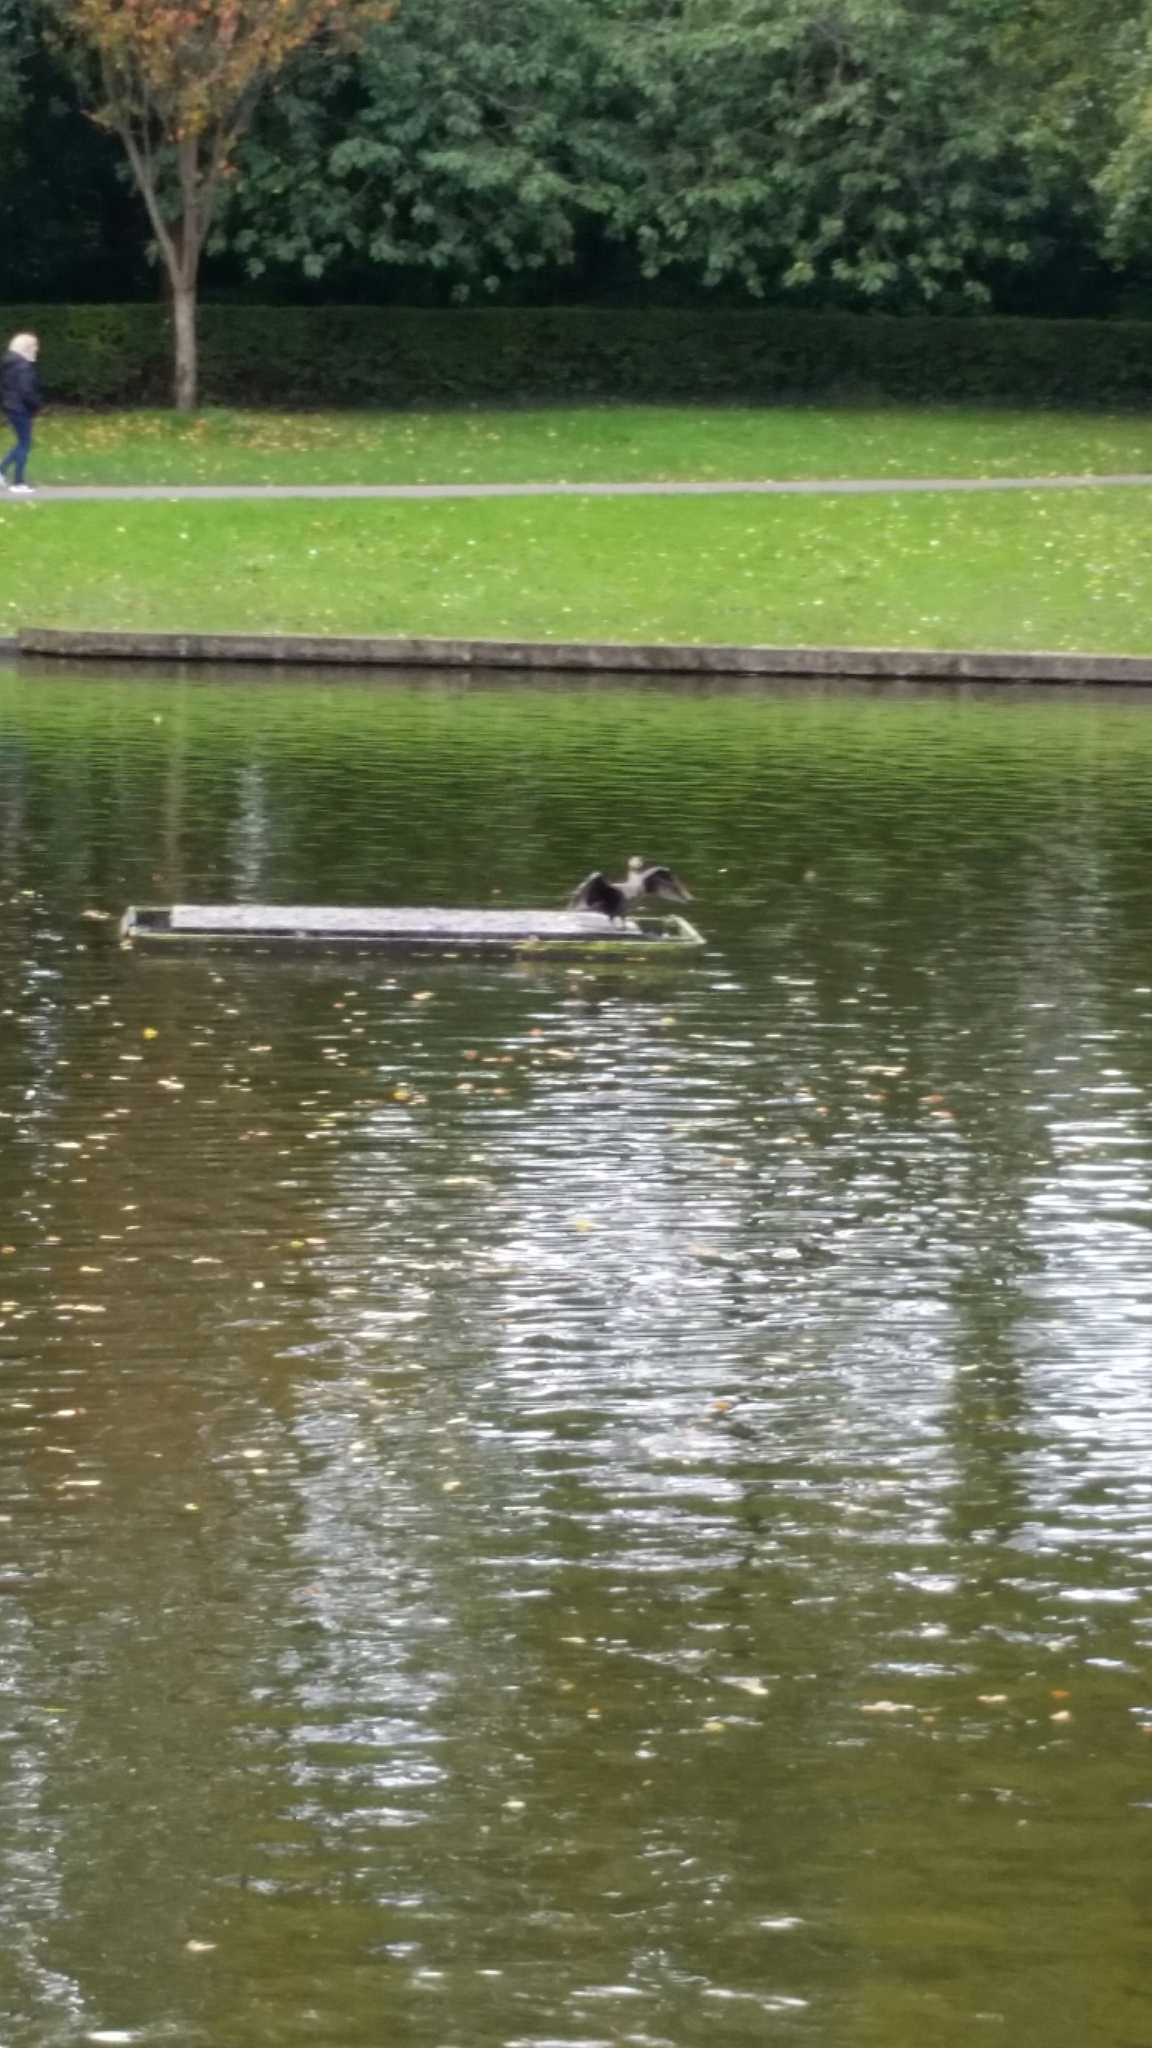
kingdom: Animalia
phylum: Chordata
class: Aves
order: Suliformes
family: Phalacrocoracidae
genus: Phalacrocorax
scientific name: Phalacrocorax carbo
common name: Great cormorant
